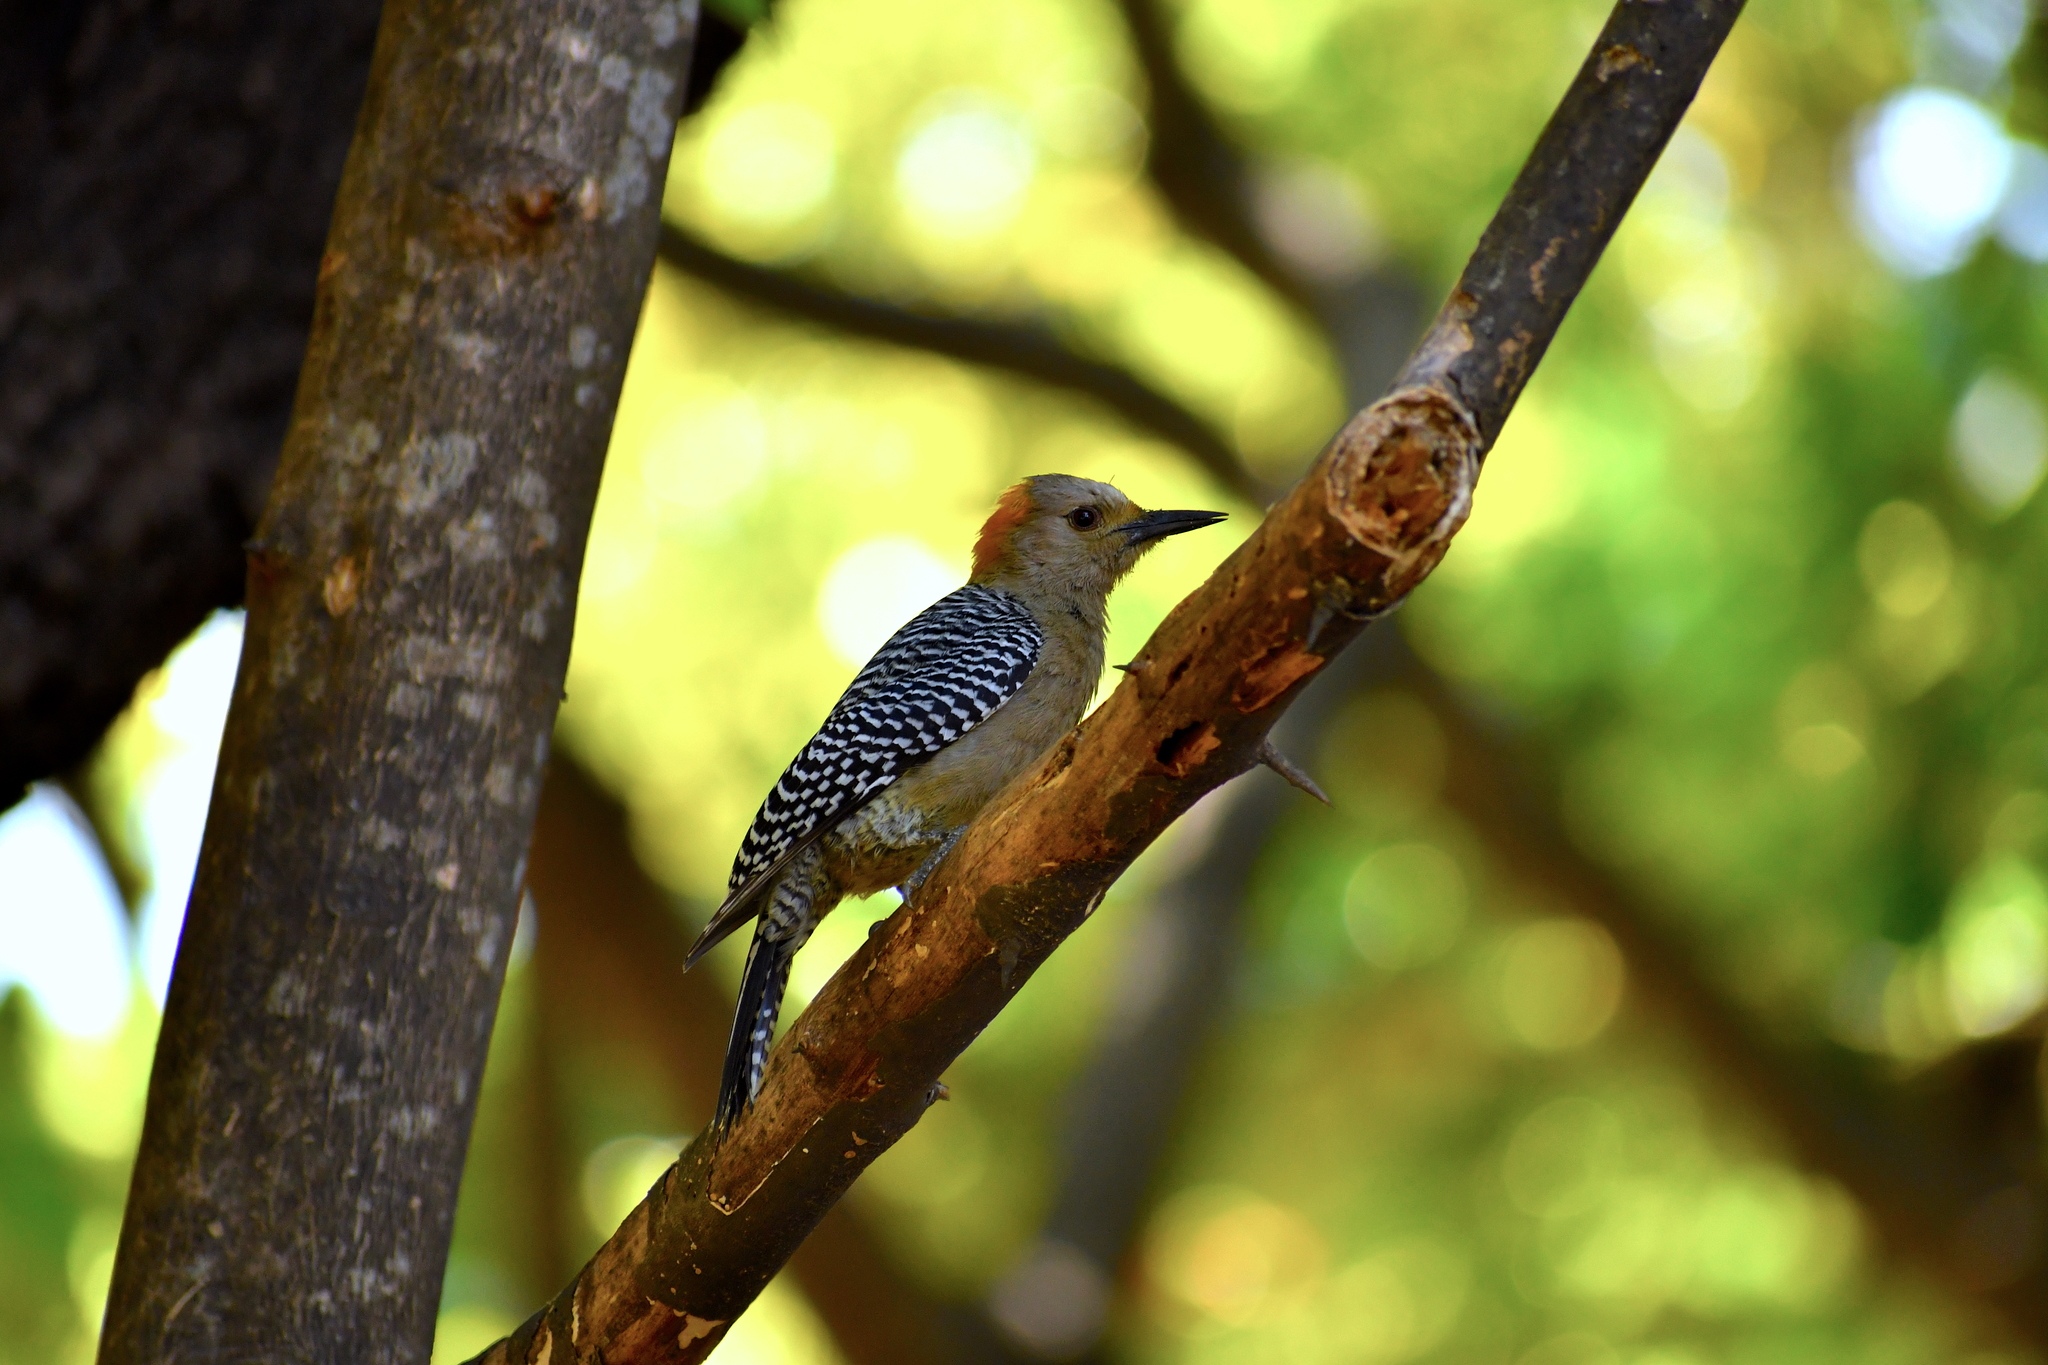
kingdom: Animalia
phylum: Chordata
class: Aves
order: Piciformes
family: Picidae
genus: Melanerpes
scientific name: Melanerpes aurifrons
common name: Golden-fronted woodpecker
